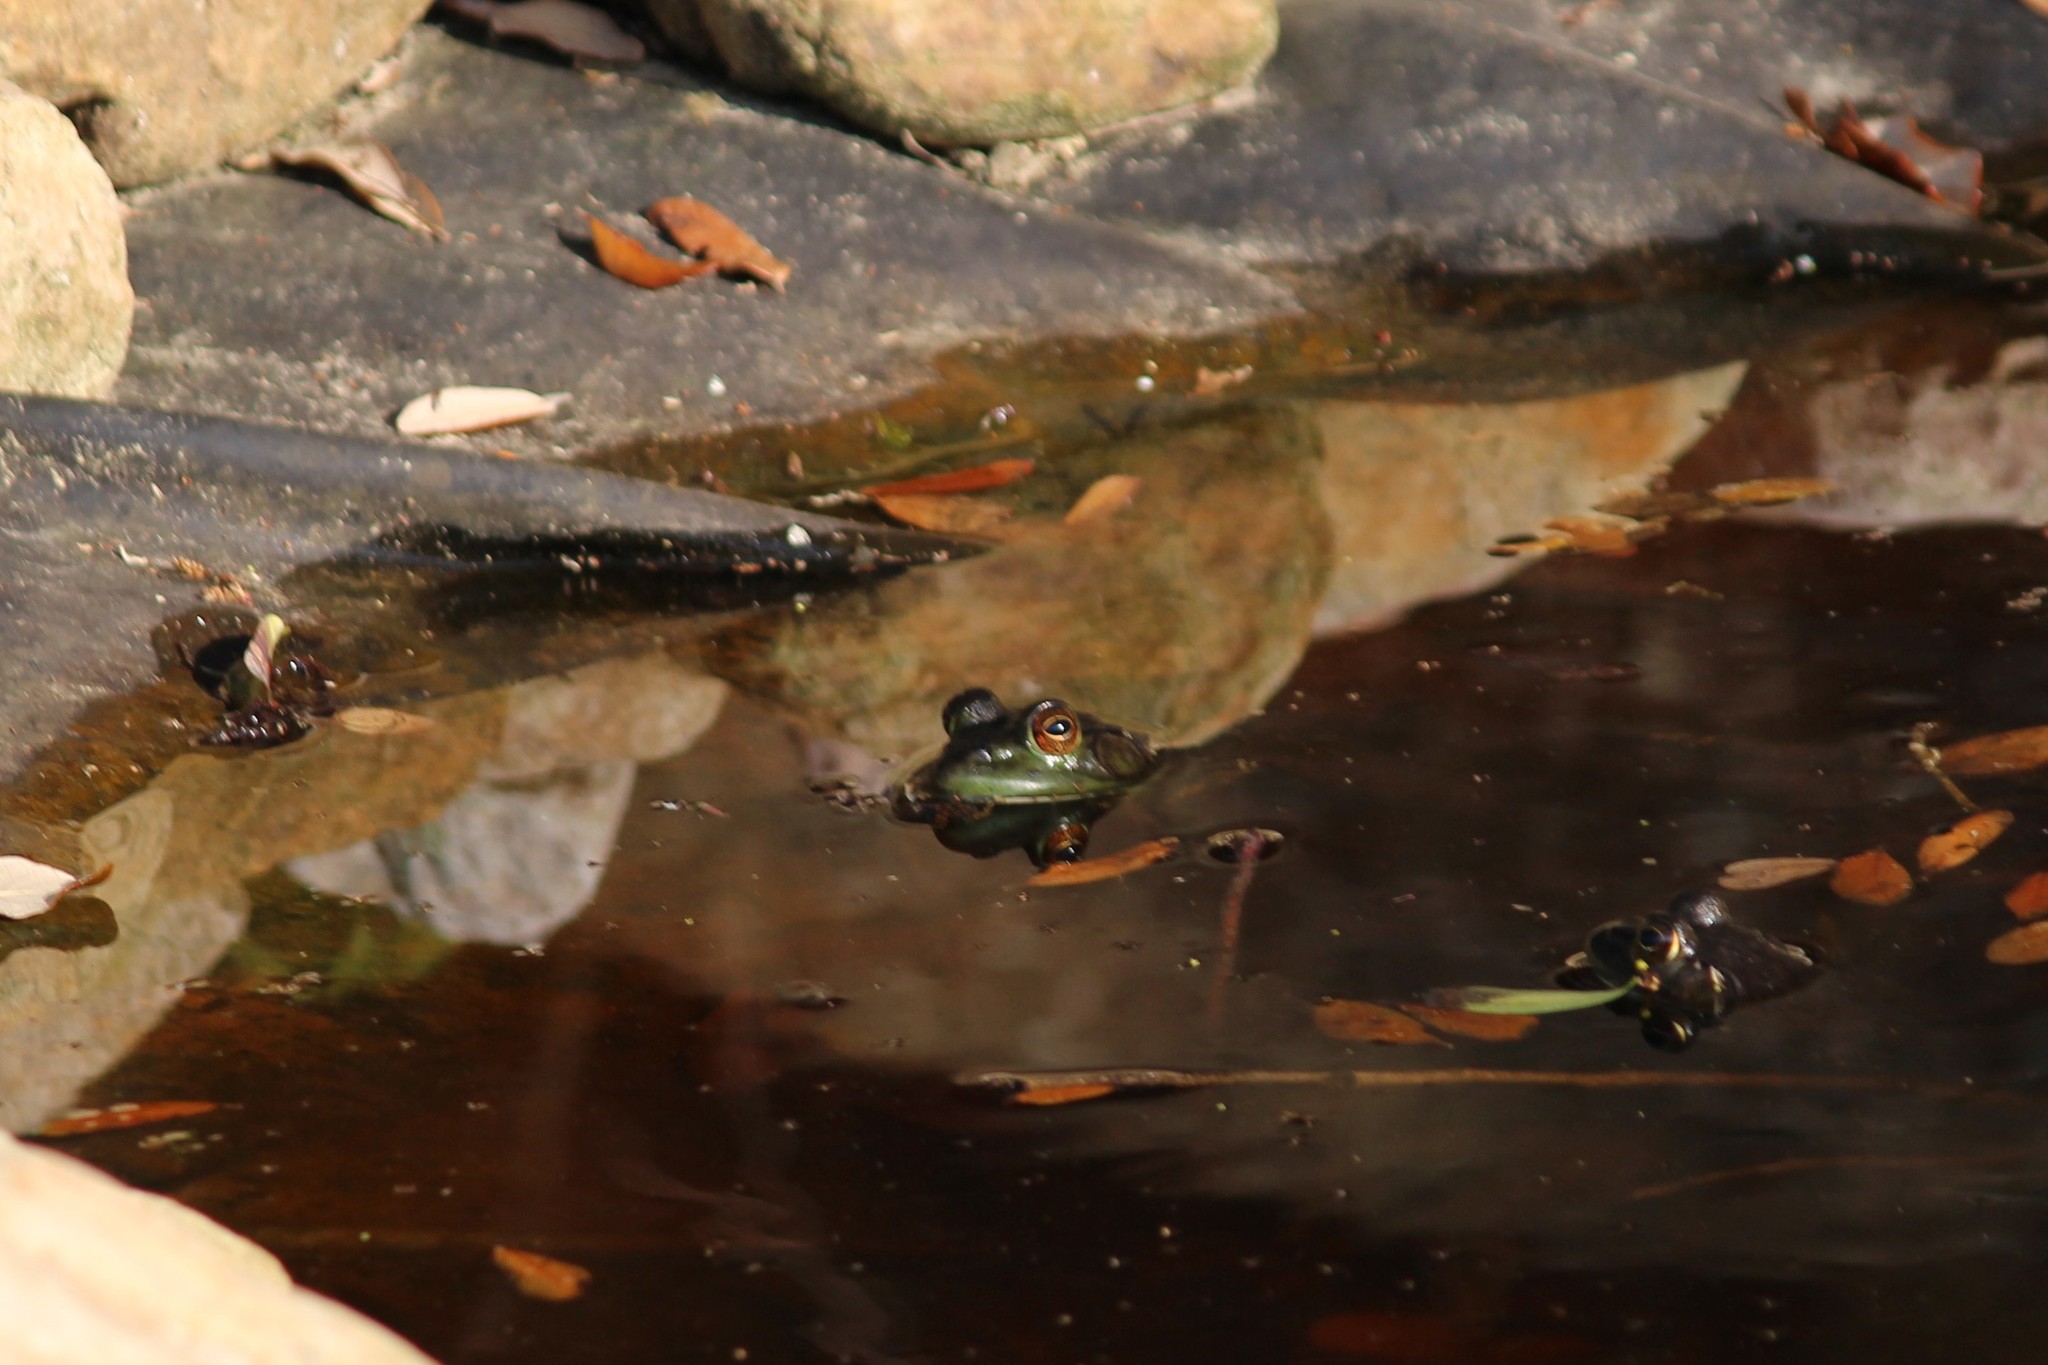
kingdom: Animalia
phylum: Chordata
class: Amphibia
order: Anura
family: Ranidae
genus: Lithobates
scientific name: Lithobates catesbeianus
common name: American bullfrog
